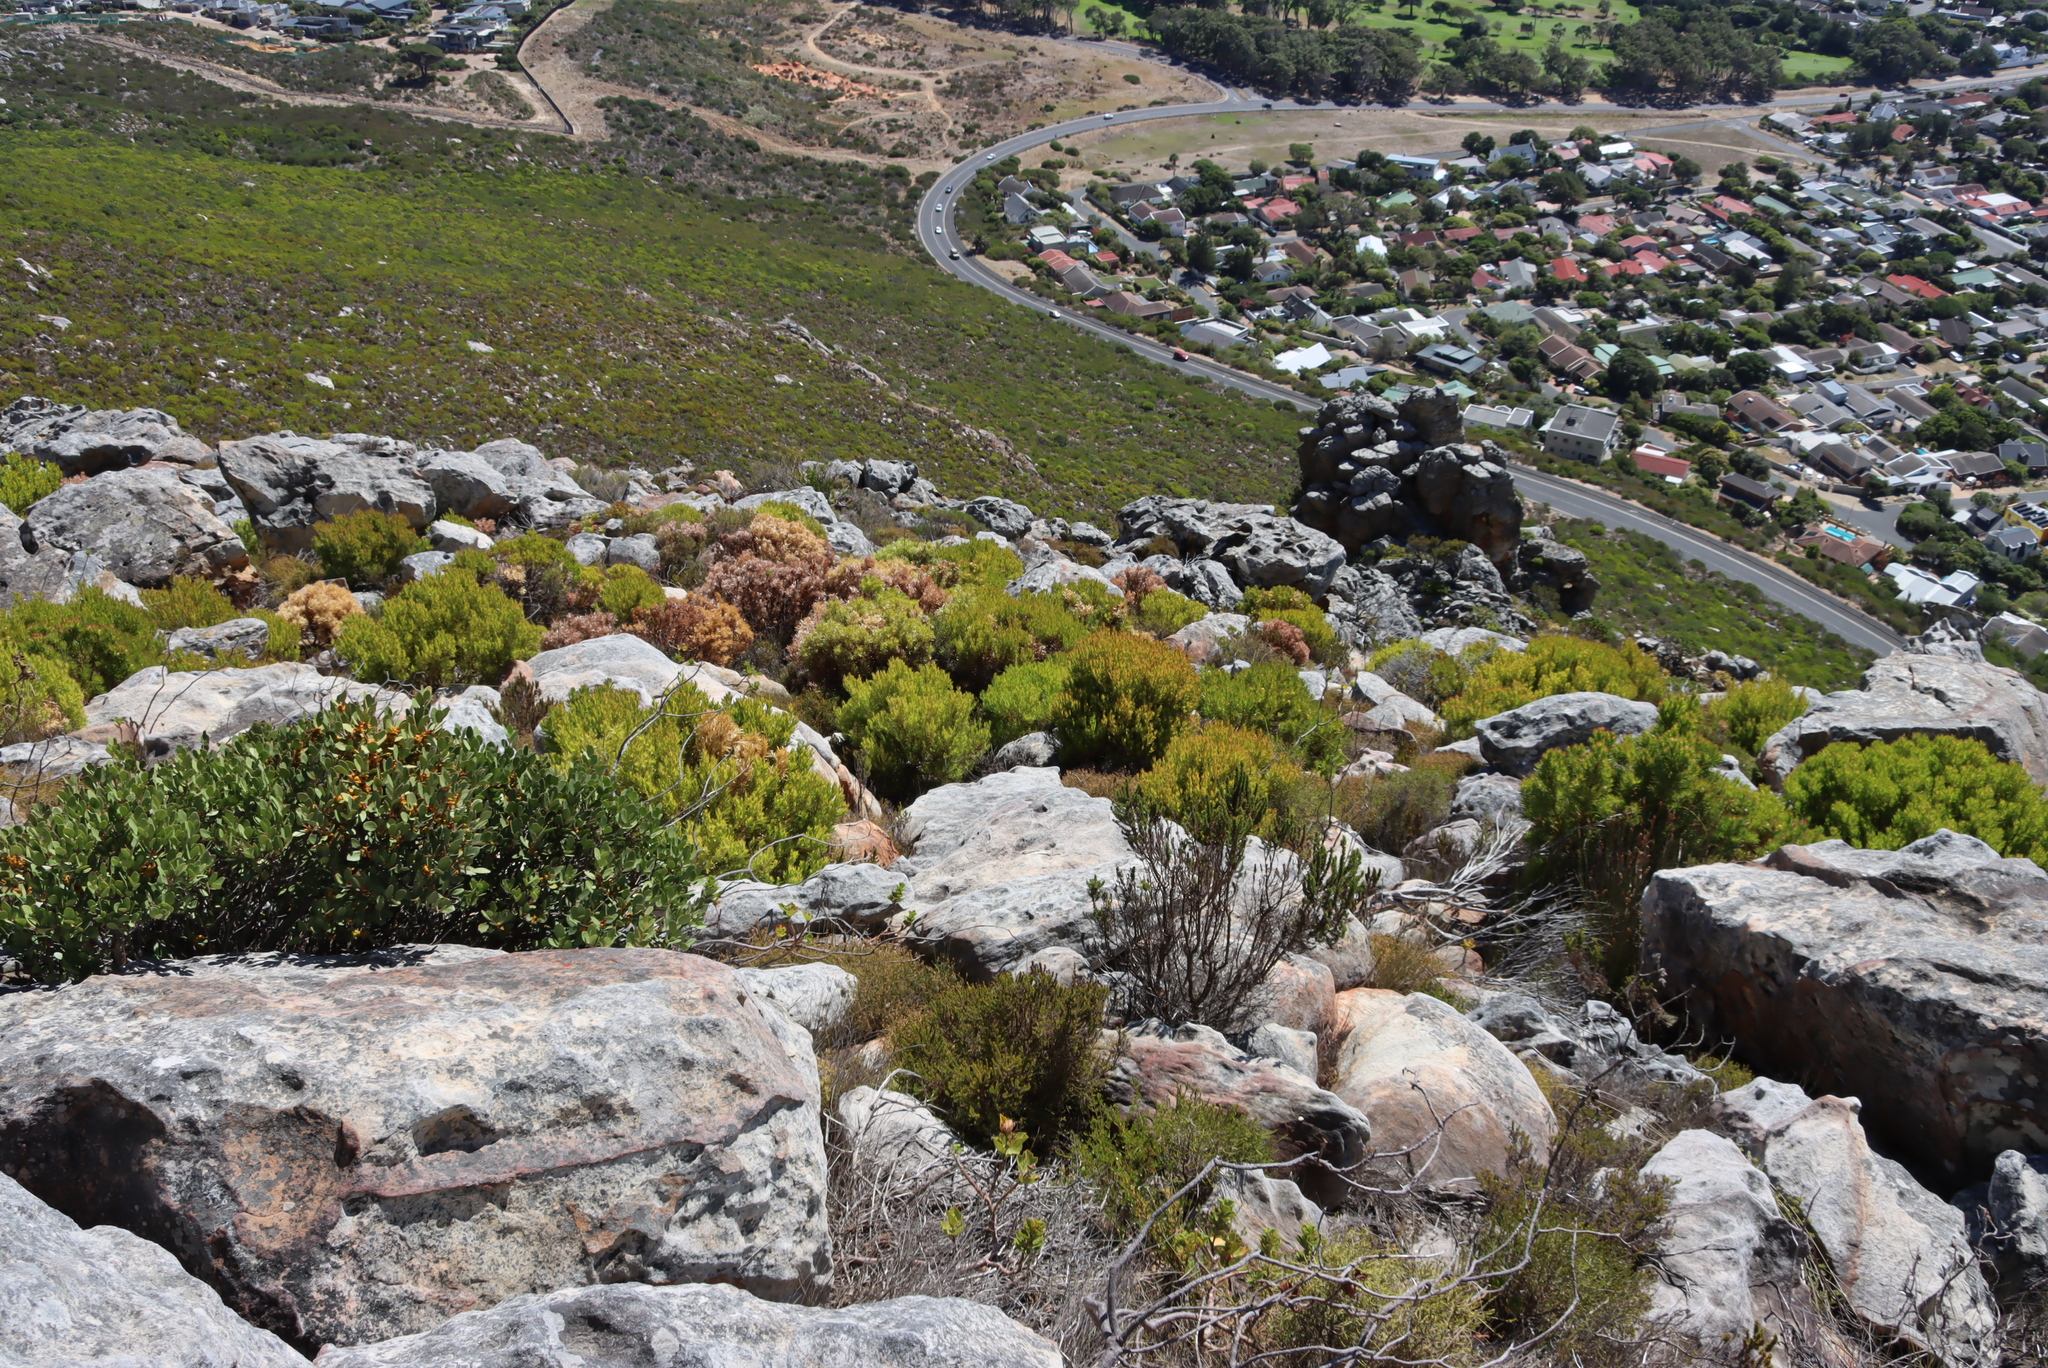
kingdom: Plantae
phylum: Tracheophyta
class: Magnoliopsida
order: Proteales
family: Proteaceae
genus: Leucadendron
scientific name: Leucadendron xanthoconus
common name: Sickle-leaf conebush
